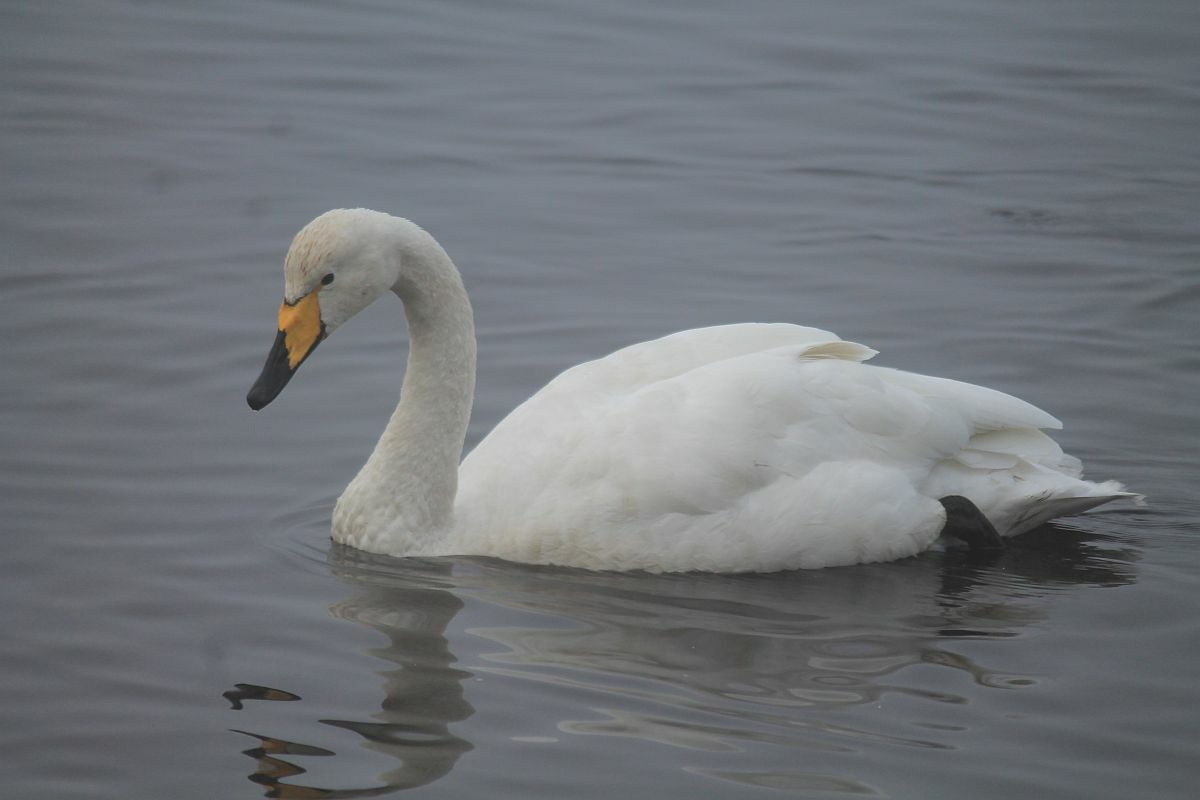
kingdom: Animalia
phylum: Chordata
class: Aves
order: Anseriformes
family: Anatidae
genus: Cygnus
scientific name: Cygnus cygnus
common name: Whooper swan
